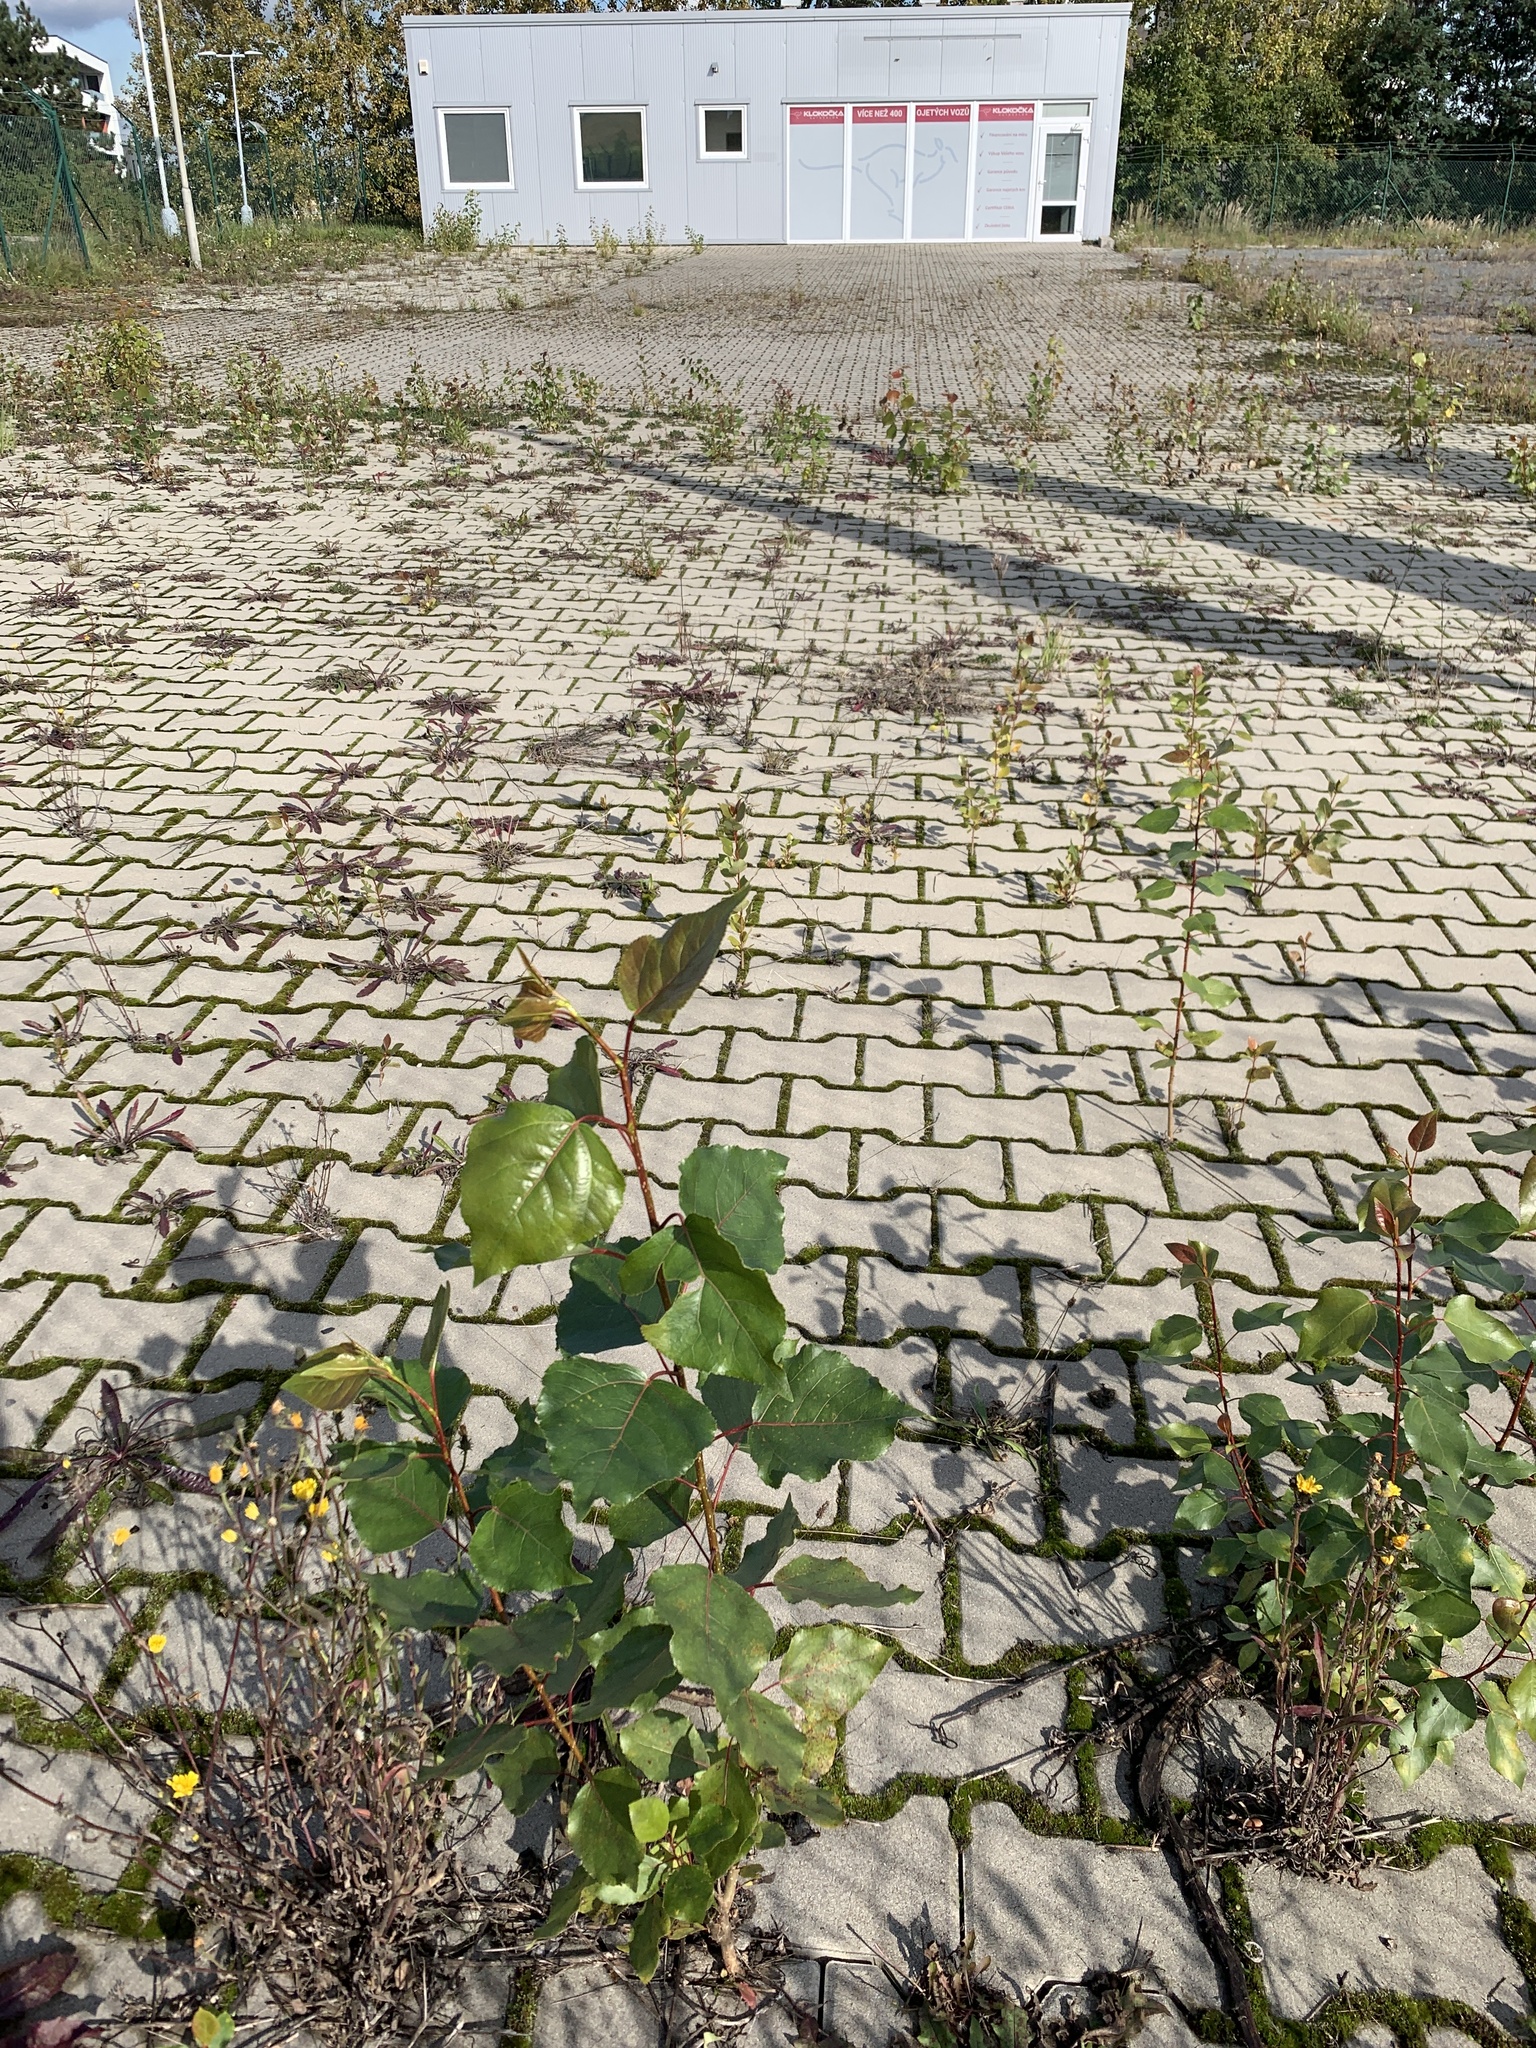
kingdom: Plantae
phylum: Tracheophyta
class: Magnoliopsida
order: Malpighiales
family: Salicaceae
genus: Populus
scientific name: Populus nigra
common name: Black poplar
